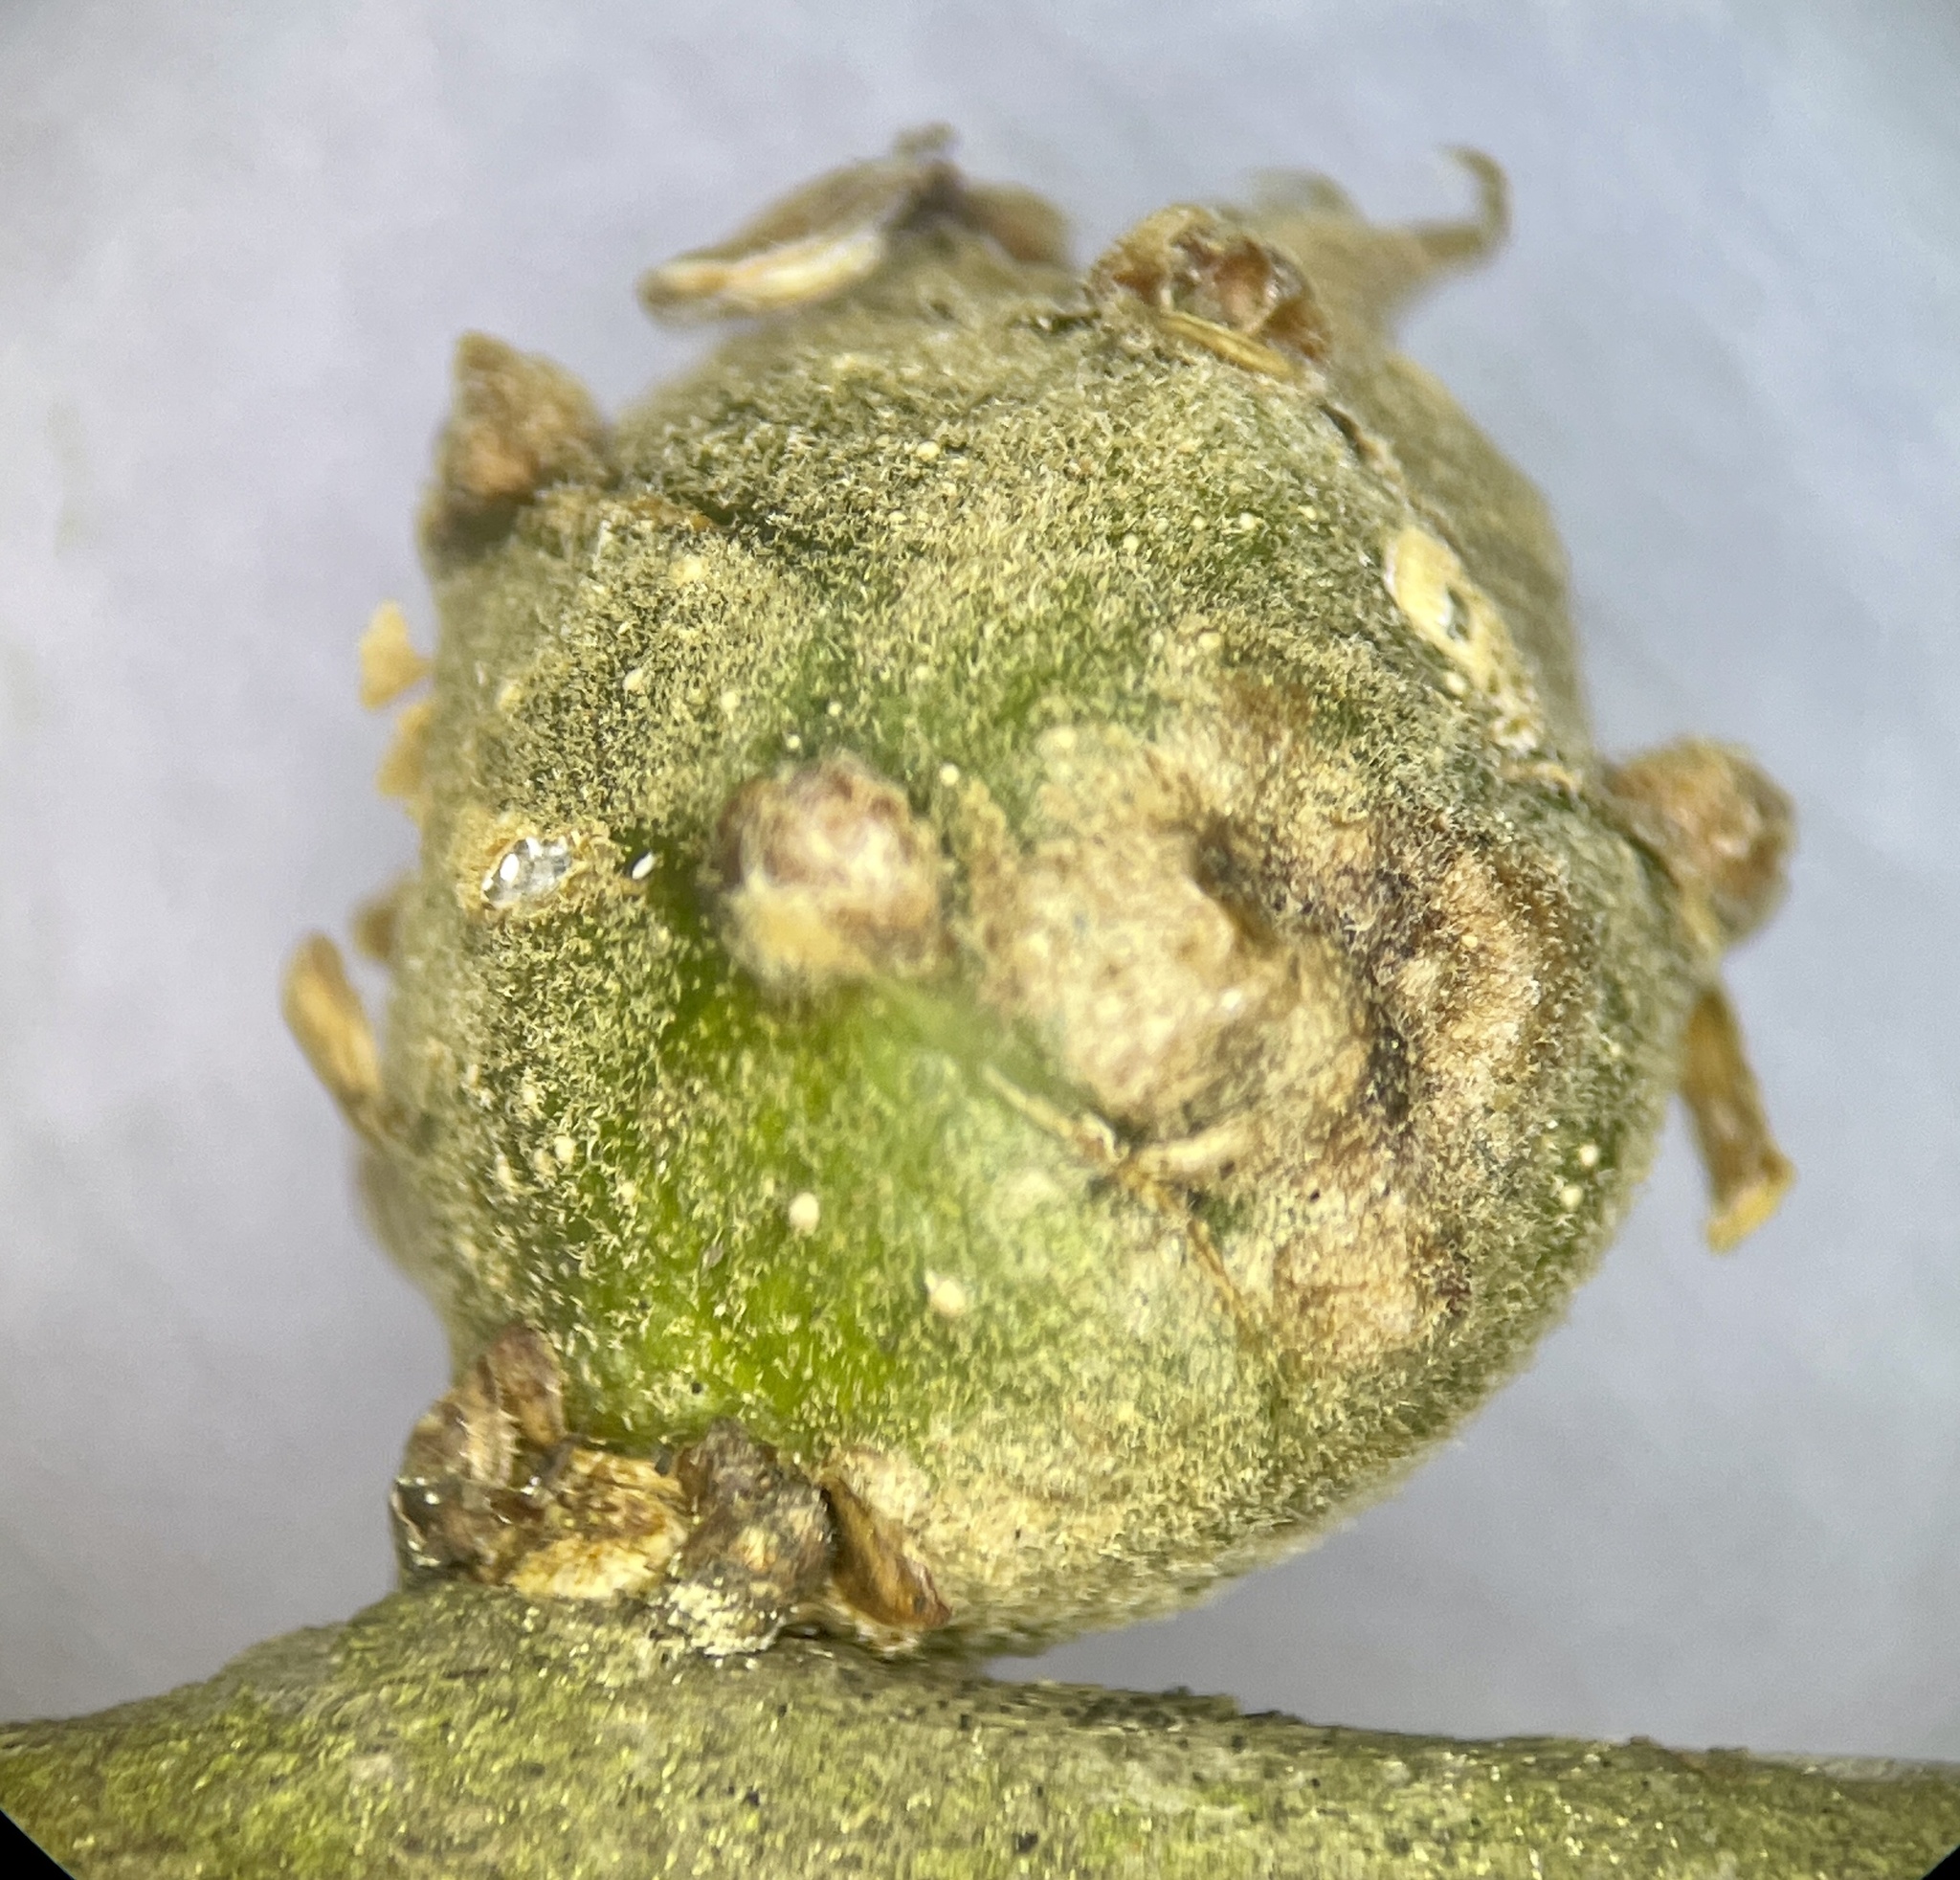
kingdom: Animalia
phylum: Arthropoda
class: Insecta
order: Hymenoptera
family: Cynipidae
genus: Callirhytis
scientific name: Callirhytis clavula
